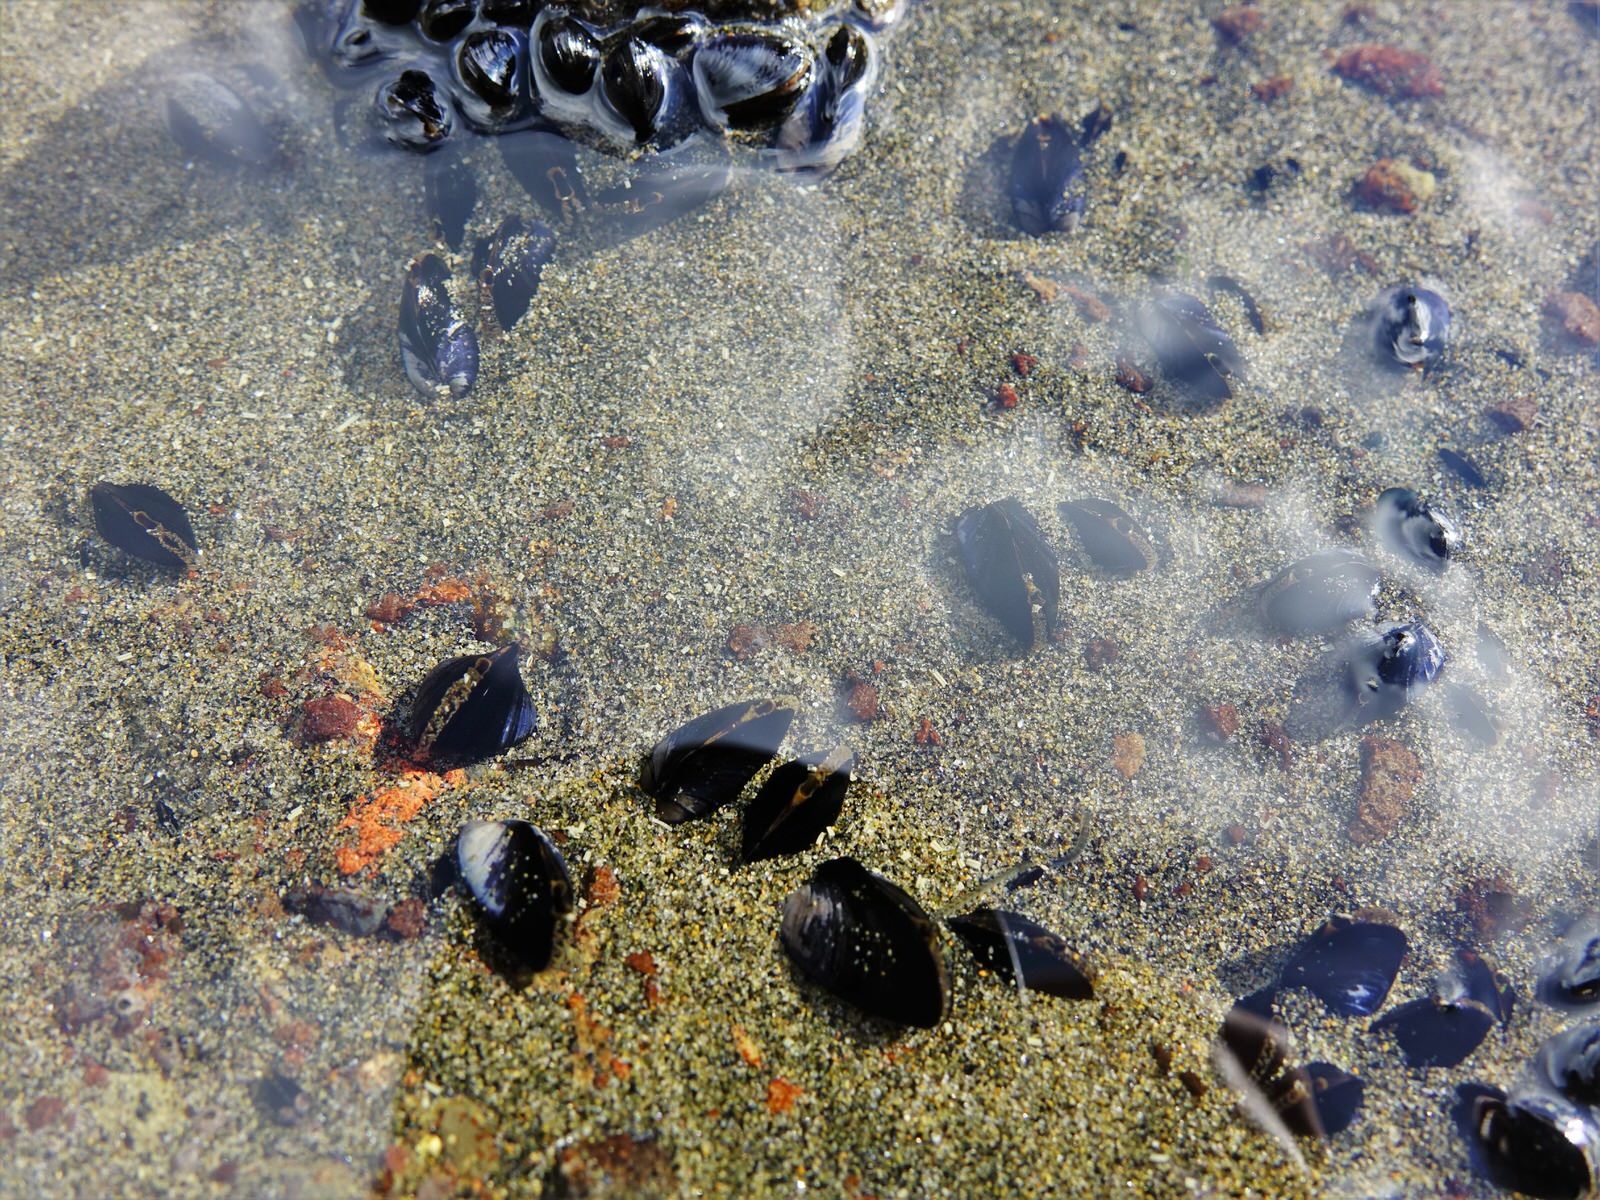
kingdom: Animalia
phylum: Mollusca
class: Bivalvia
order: Mytilida
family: Mytilidae
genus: Xenostrobus
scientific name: Xenostrobus neozelanicus
